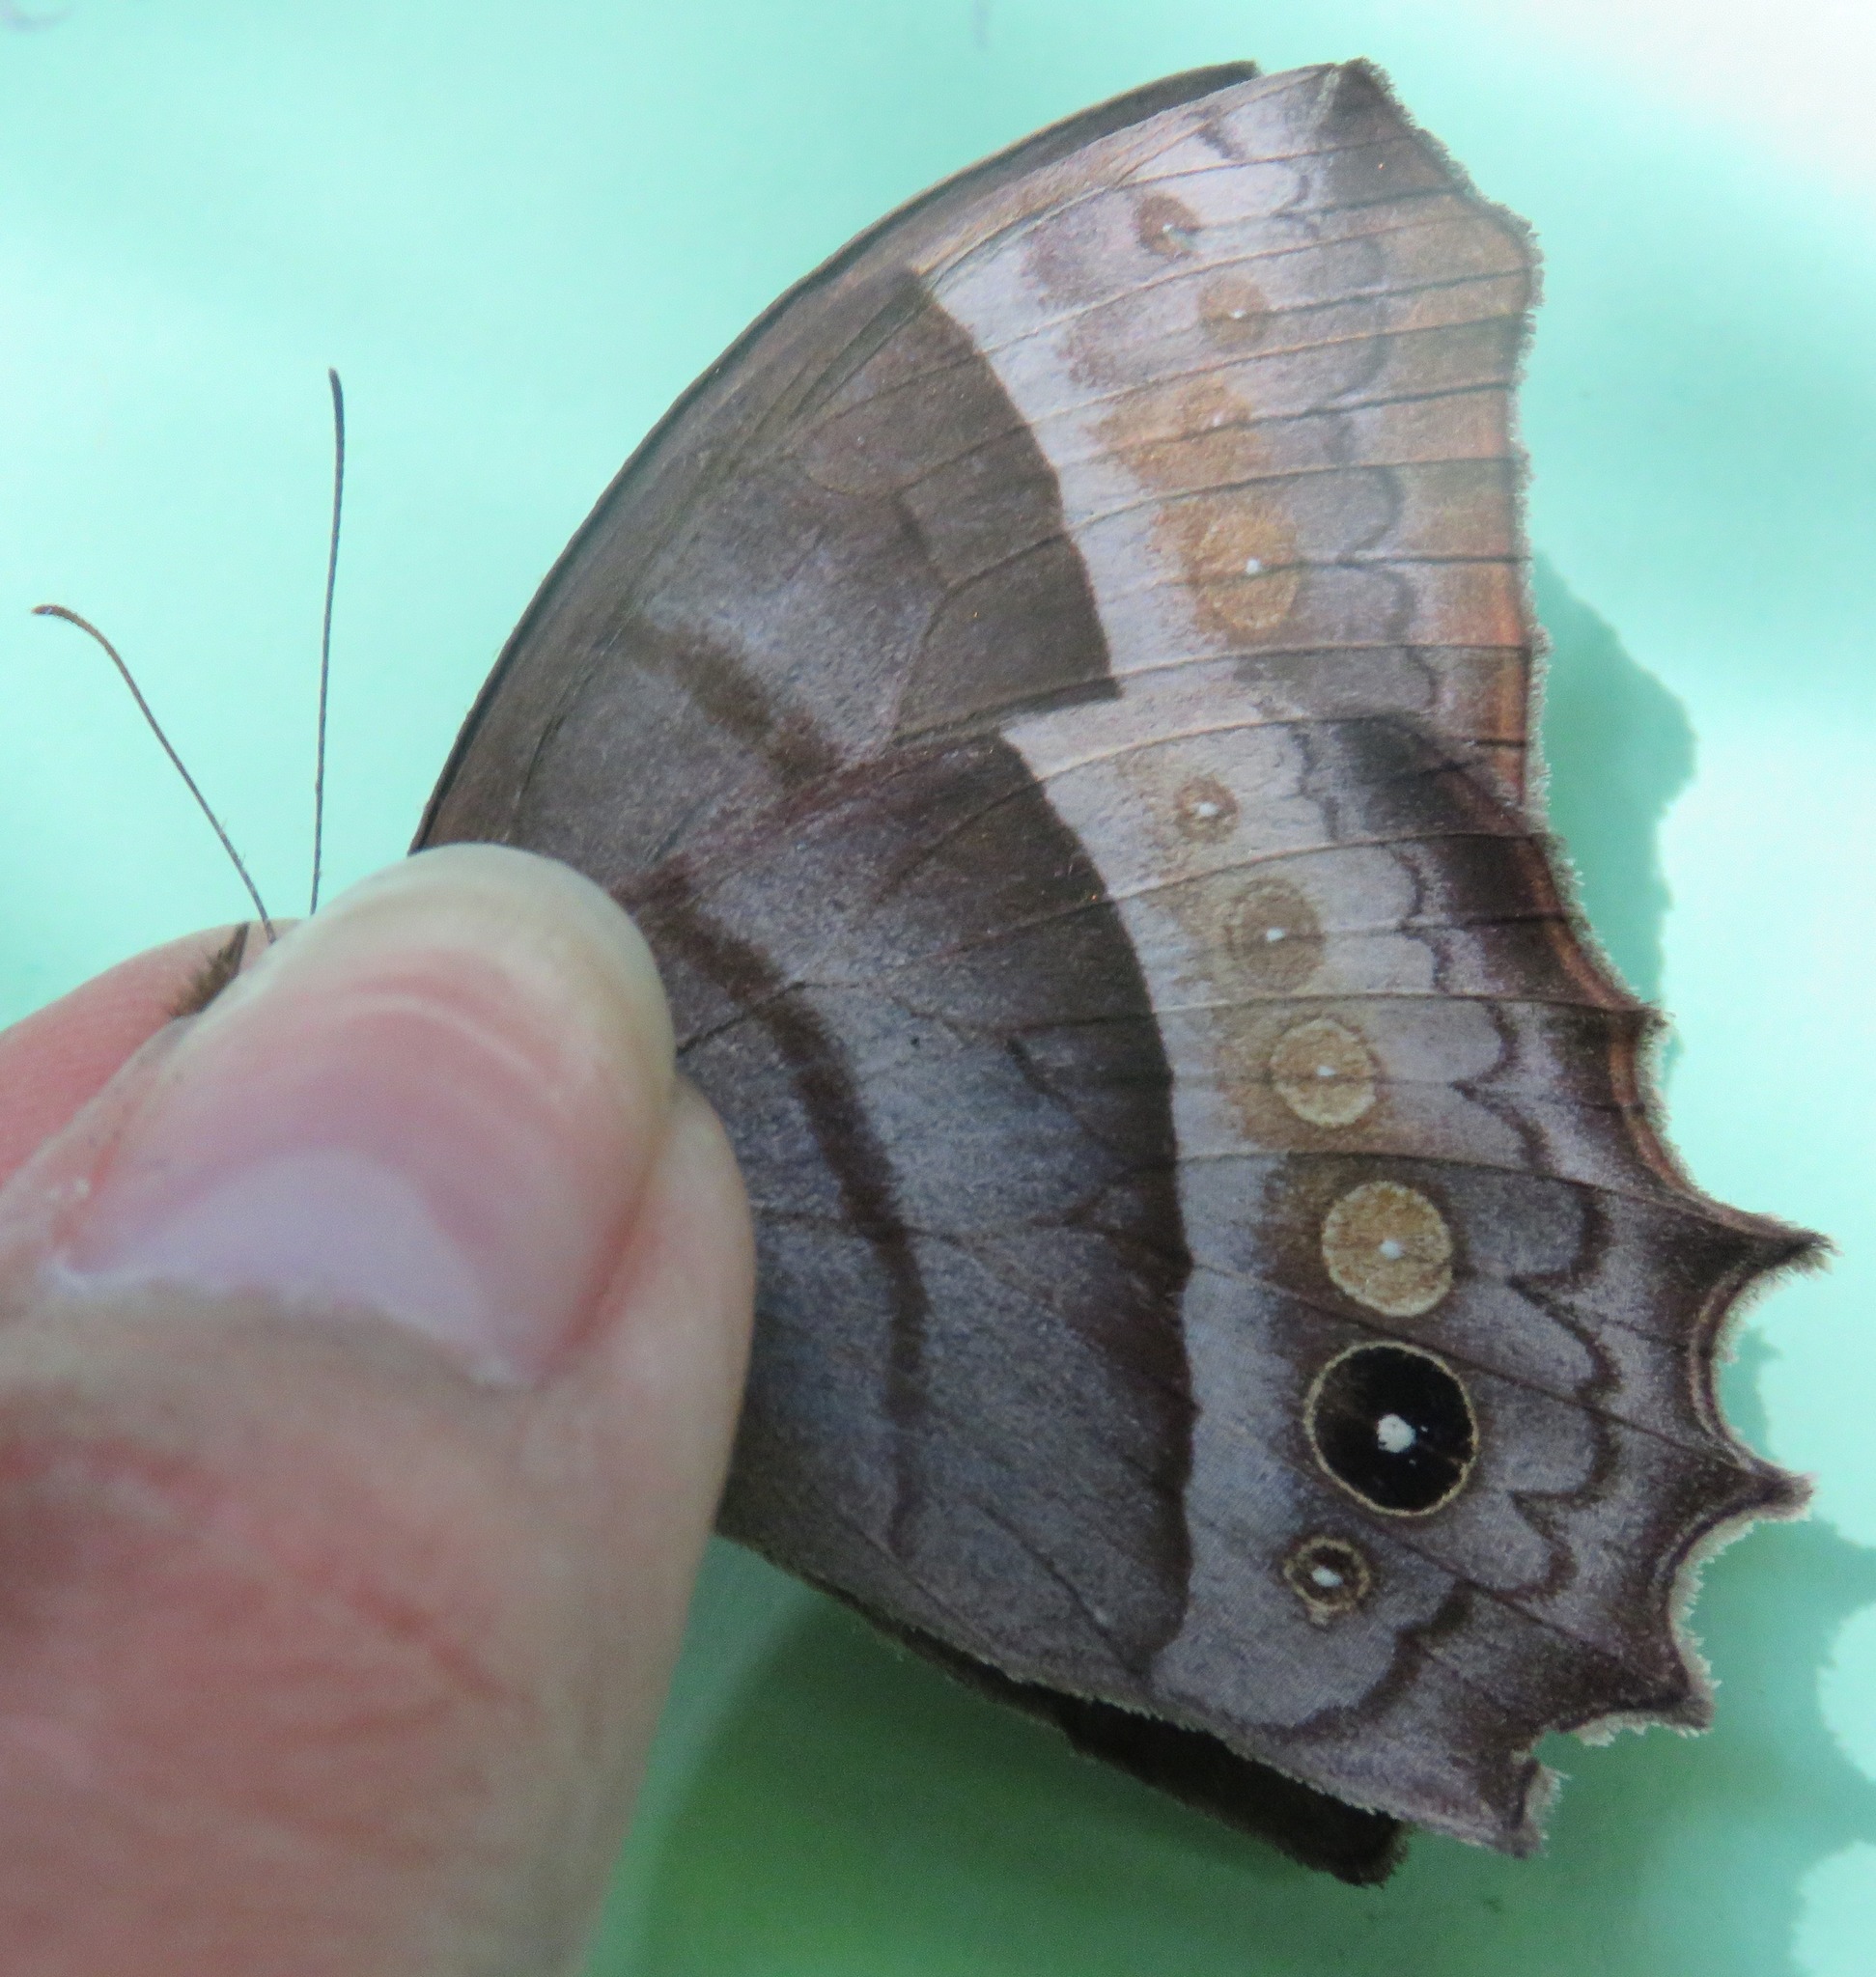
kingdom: Animalia
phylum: Arthropoda
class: Insecta
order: Lepidoptera
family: Nymphalidae
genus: Taygetis
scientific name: Taygetis inconspicua
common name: Inconspicuous satyr
